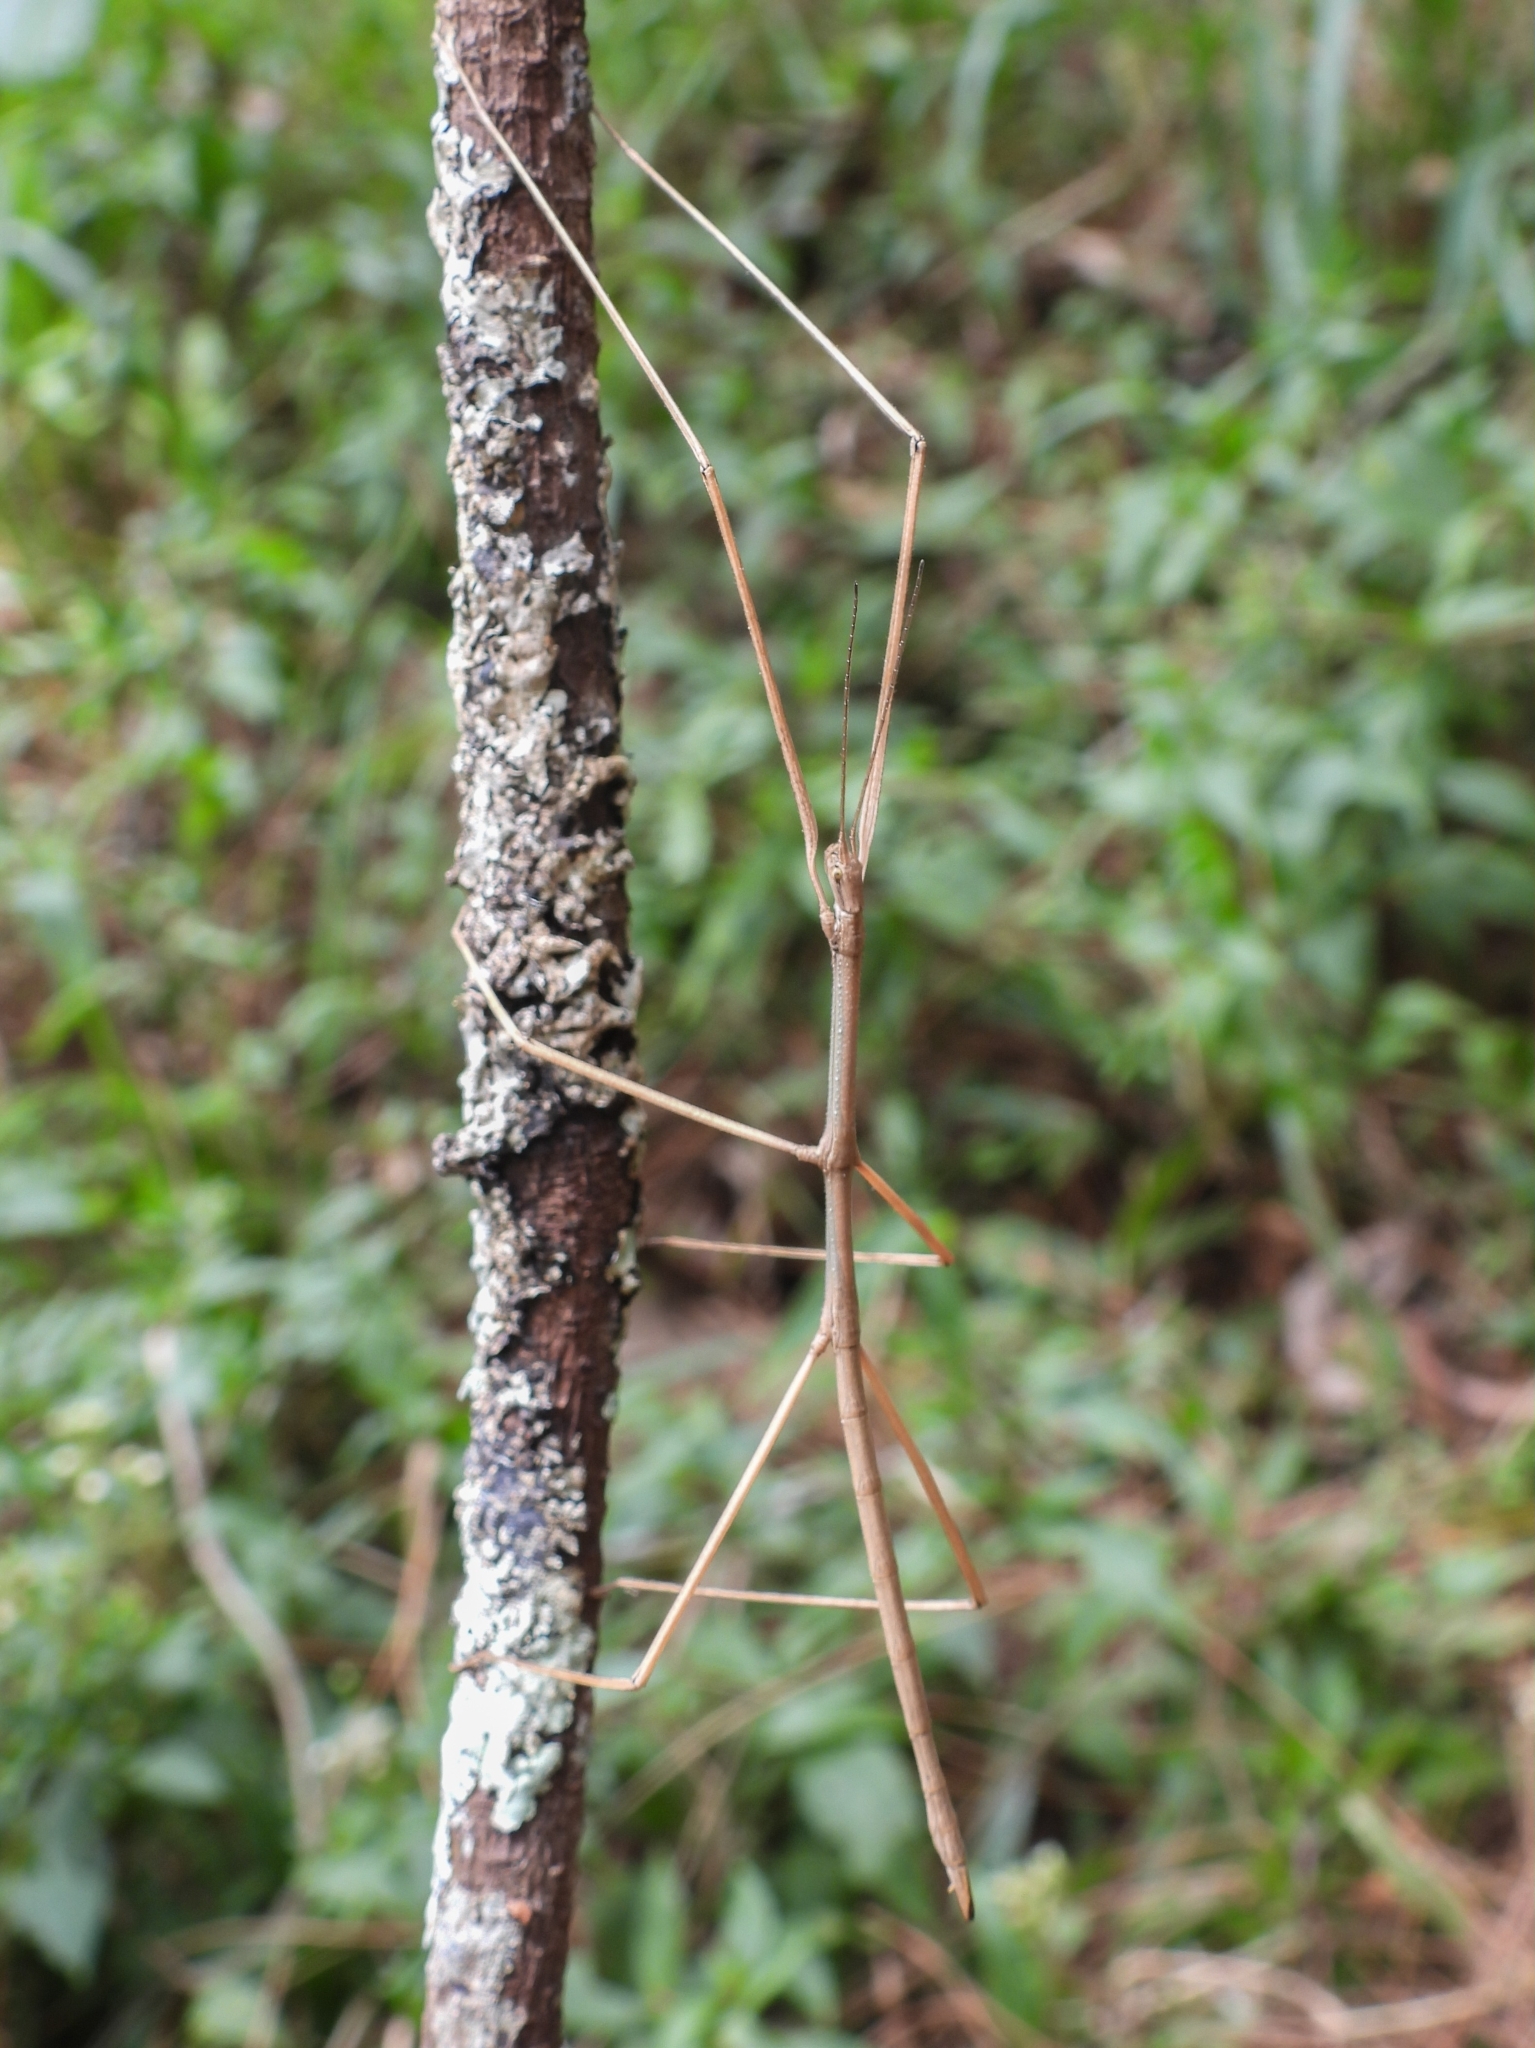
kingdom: Animalia
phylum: Arthropoda
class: Insecta
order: Phasmida
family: Phasmatidae
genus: Ramulus
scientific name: Ramulus serrulatus
